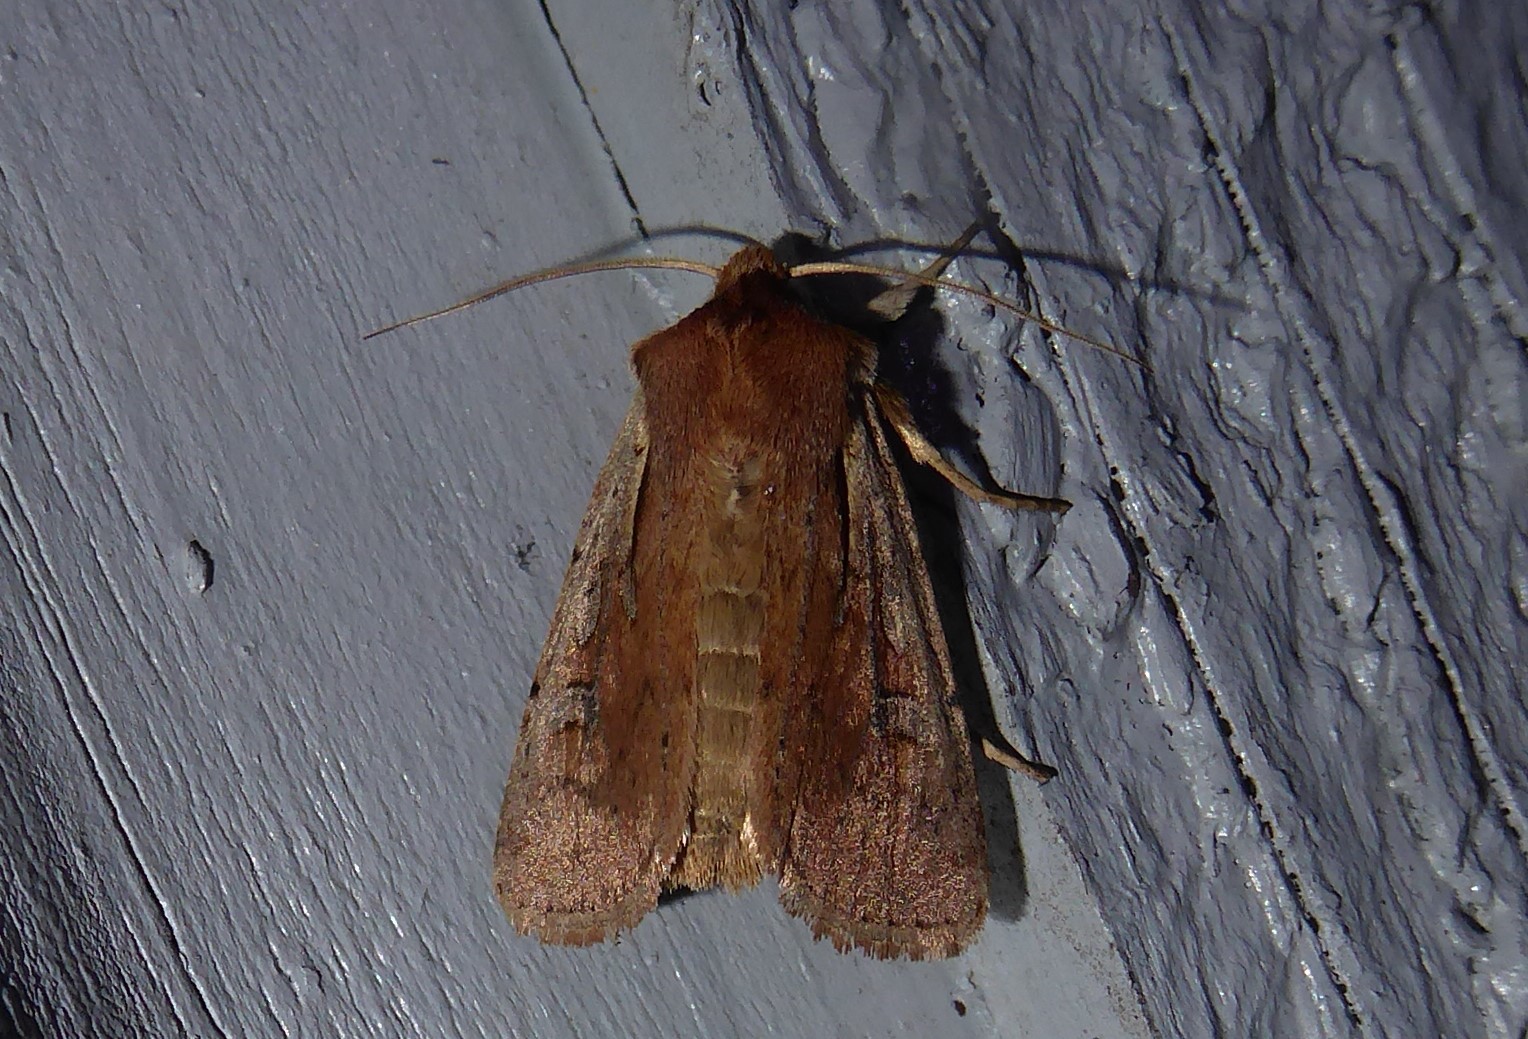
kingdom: Animalia
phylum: Arthropoda
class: Insecta
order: Lepidoptera
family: Noctuidae
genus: Ichneutica
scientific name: Ichneutica atristriga
